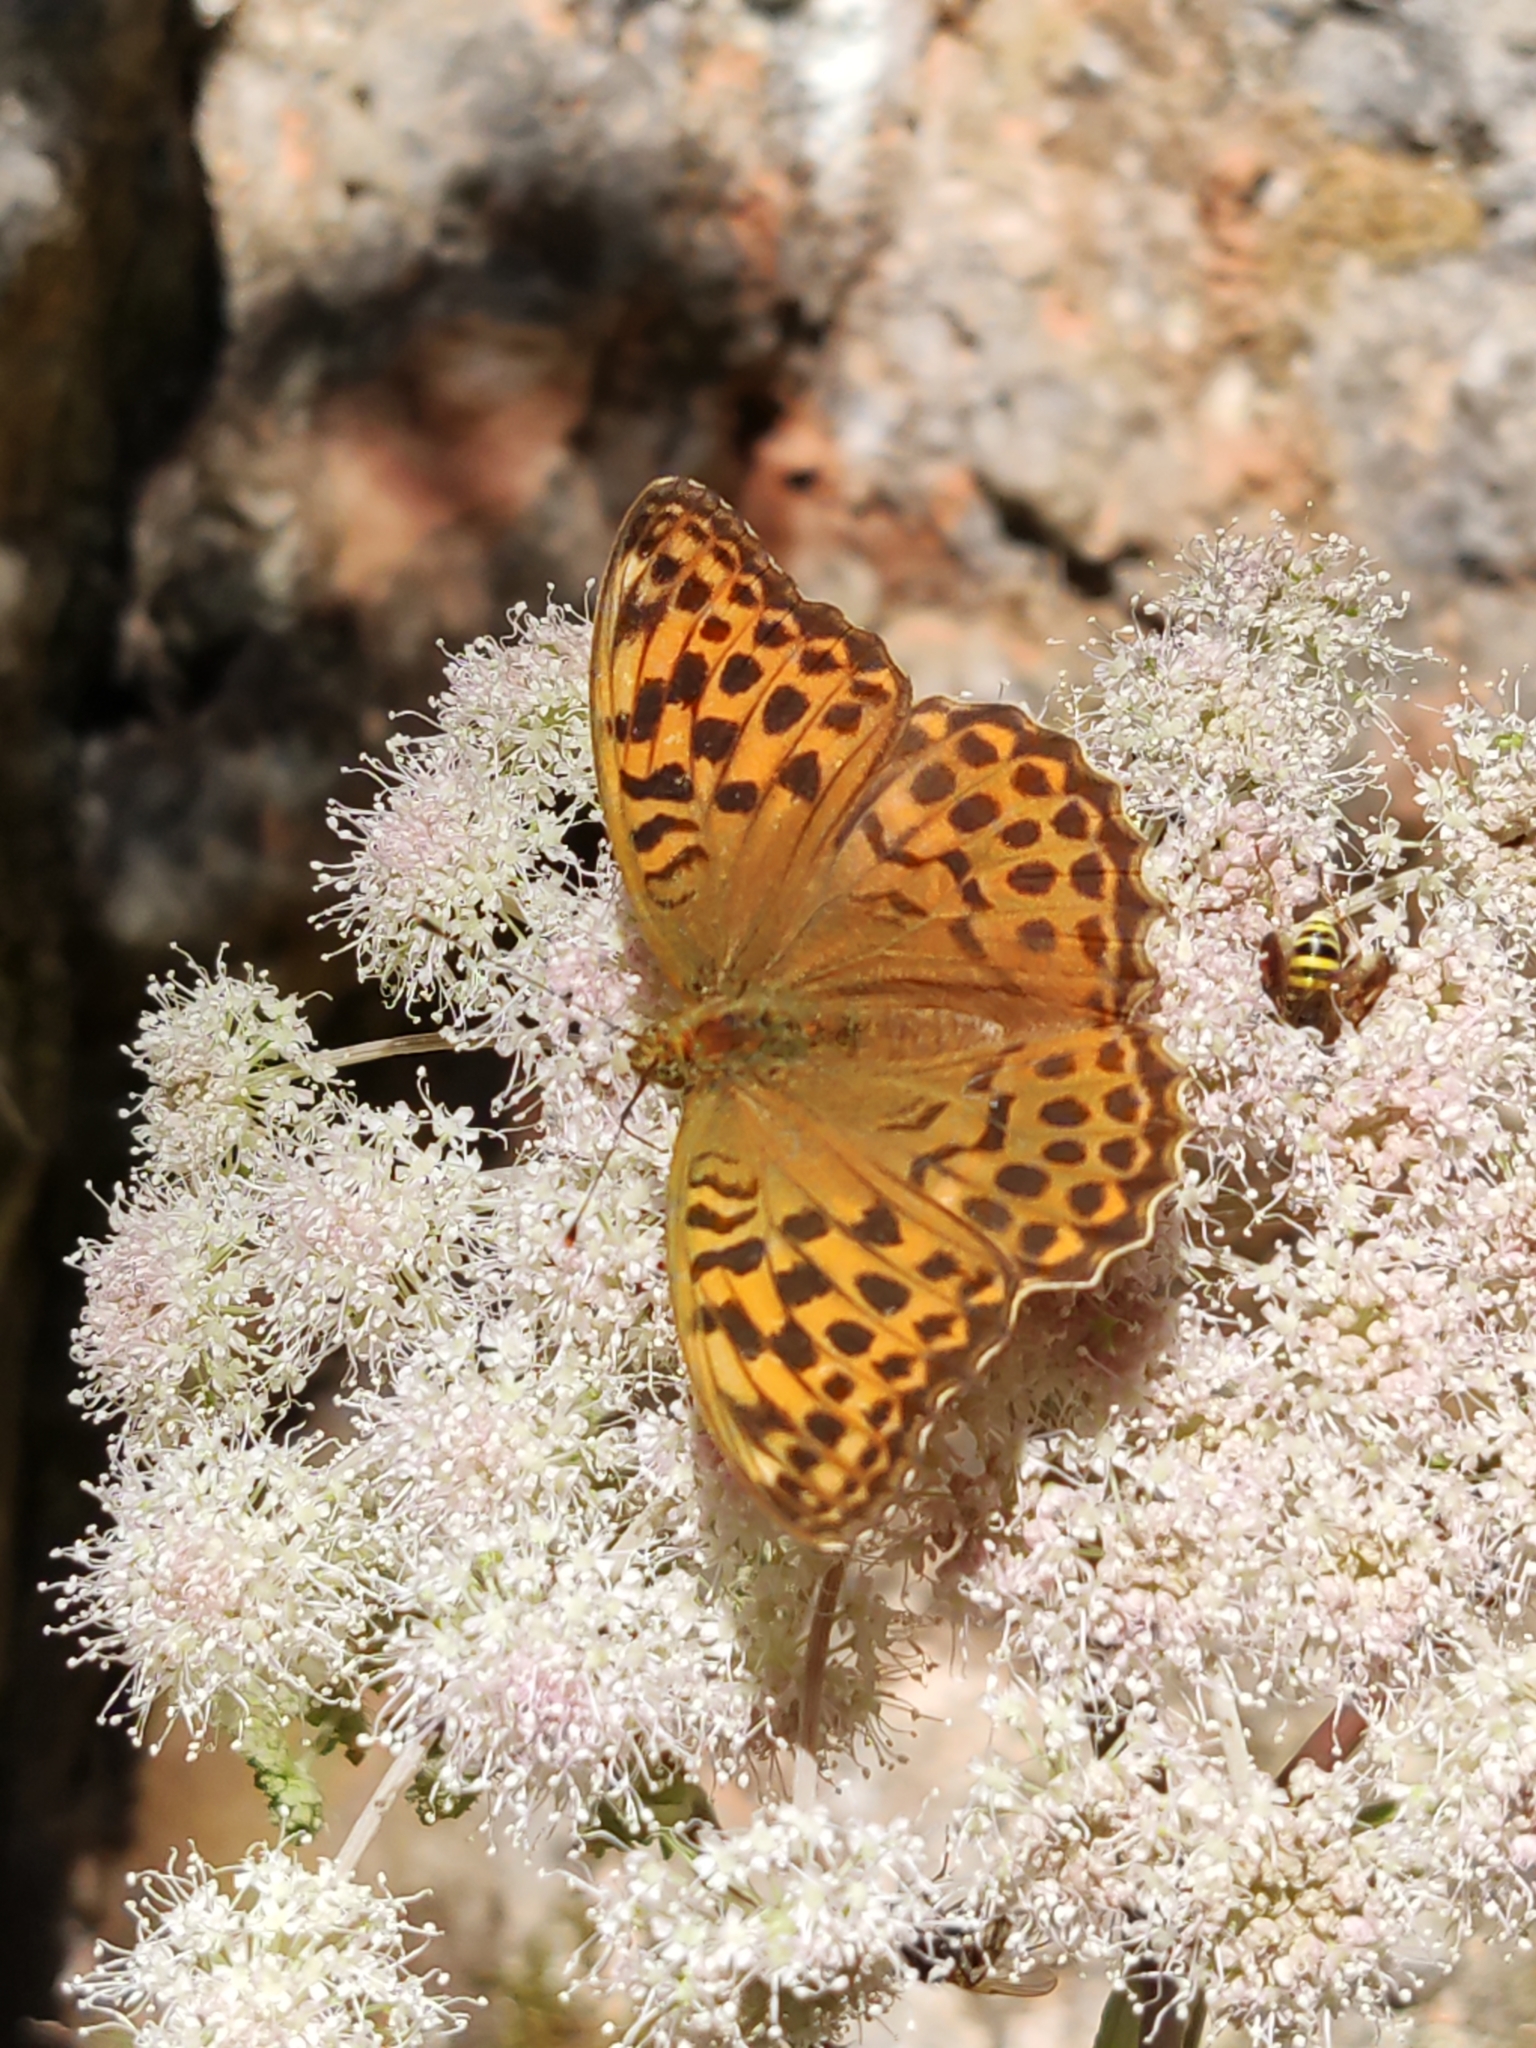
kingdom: Animalia
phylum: Arthropoda
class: Insecta
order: Lepidoptera
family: Nymphalidae
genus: Argynnis
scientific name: Argynnis paphia
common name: Silver-washed fritillary
